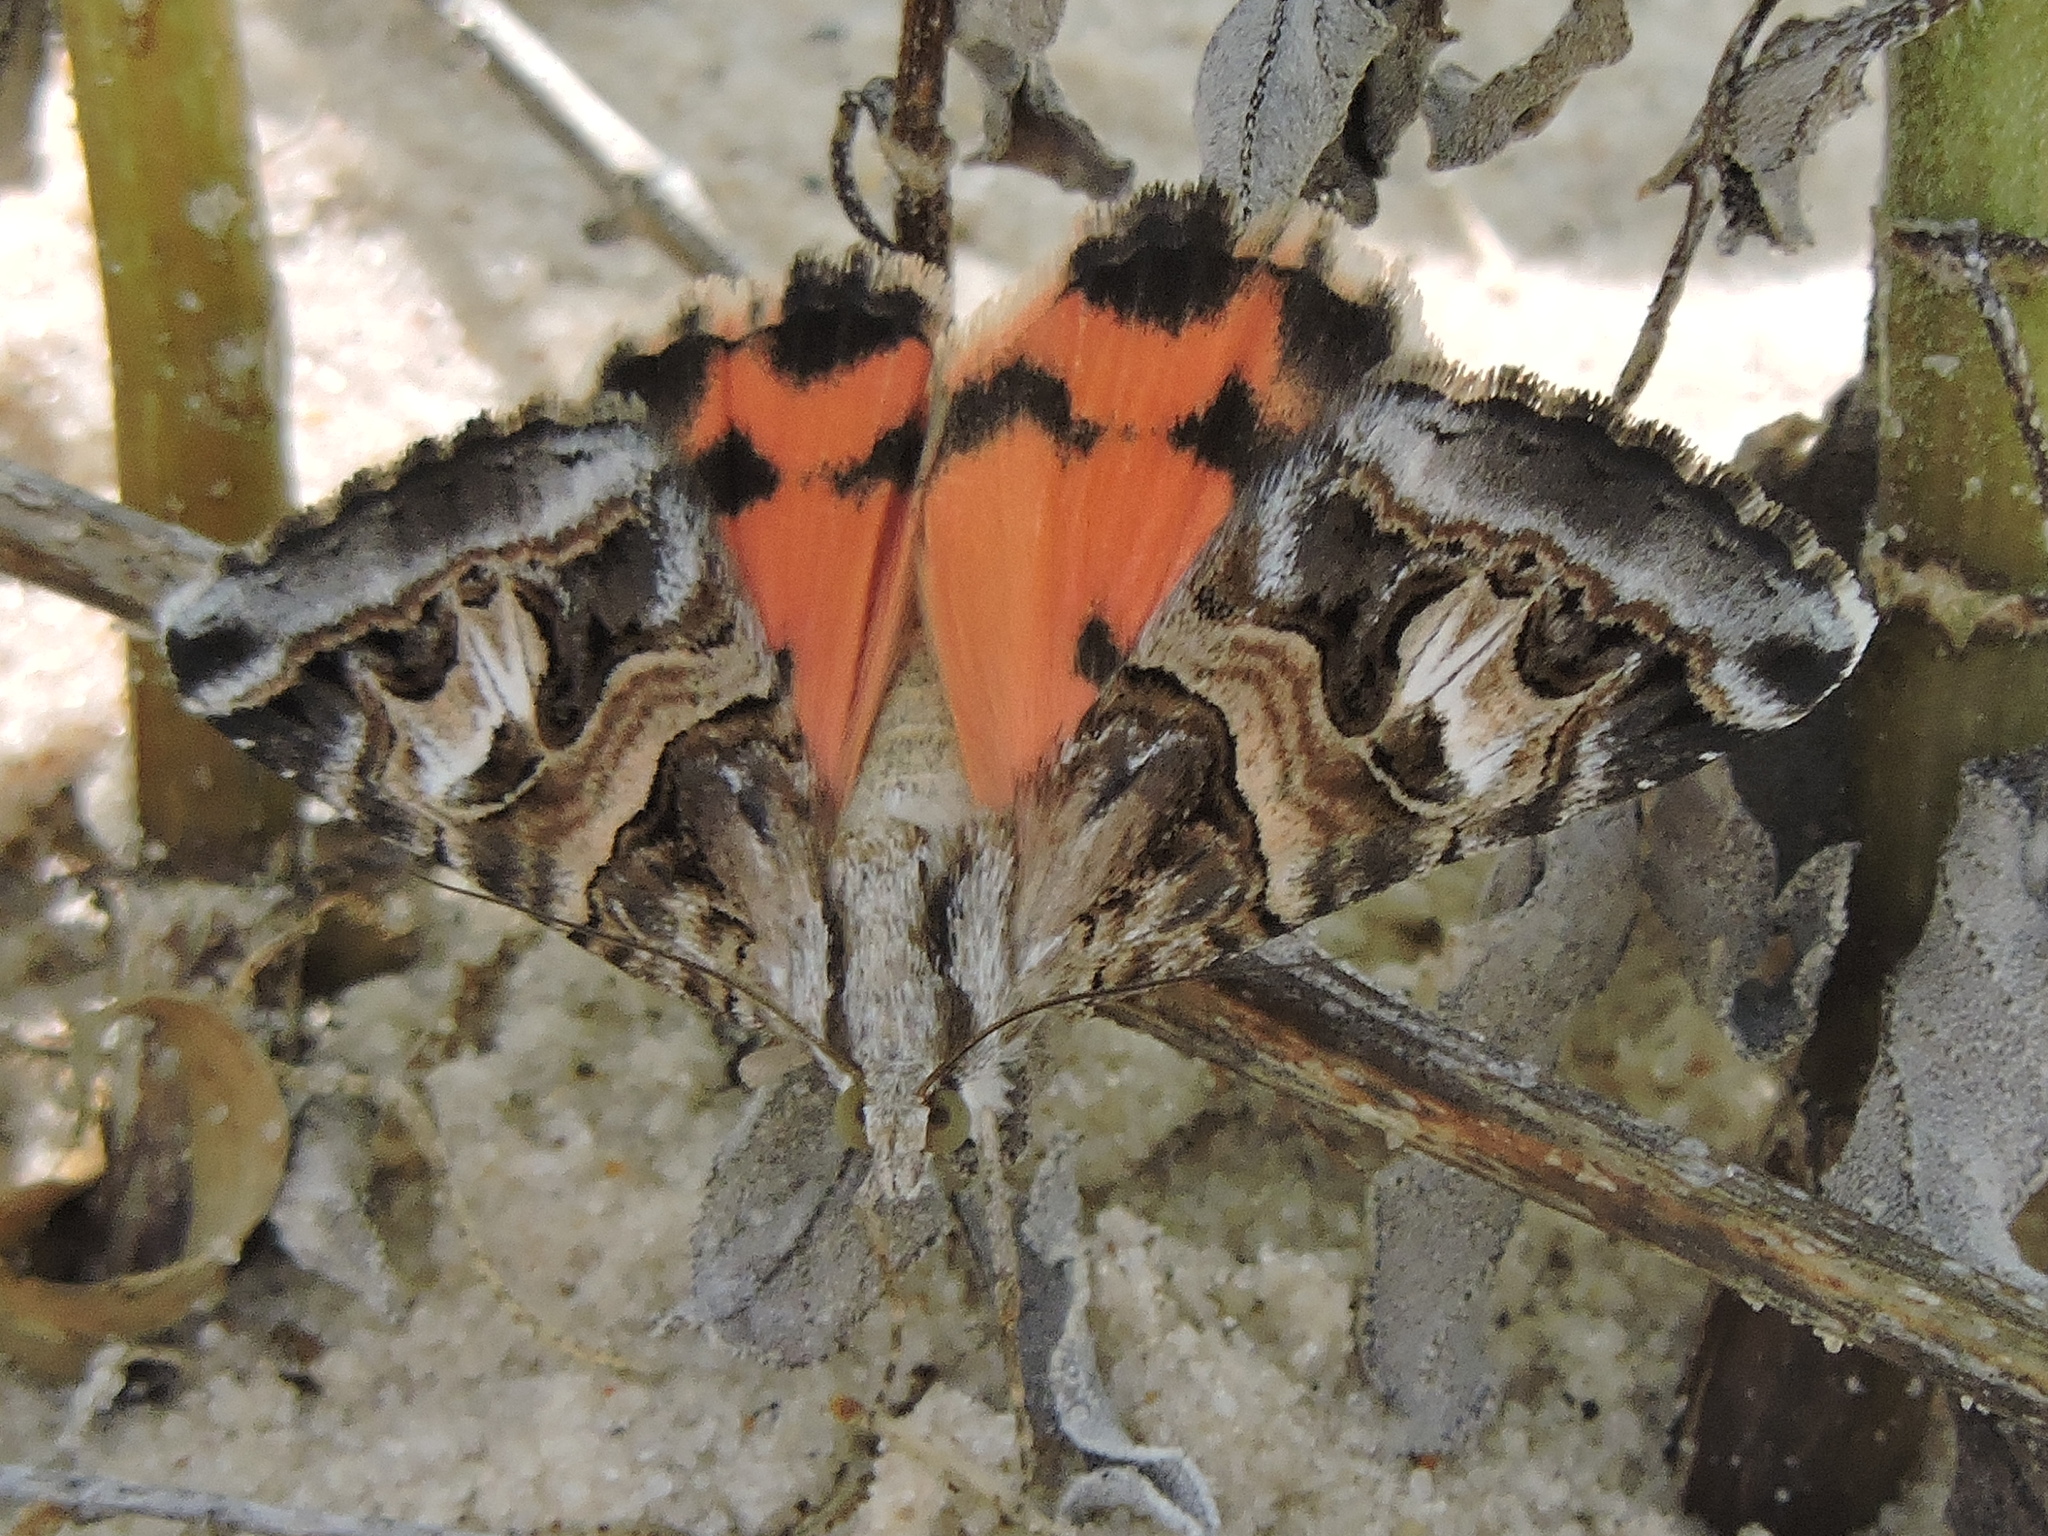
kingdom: Animalia
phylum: Arthropoda
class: Insecta
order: Lepidoptera
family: Erebidae
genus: Drasteria
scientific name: Drasteria mirifica
